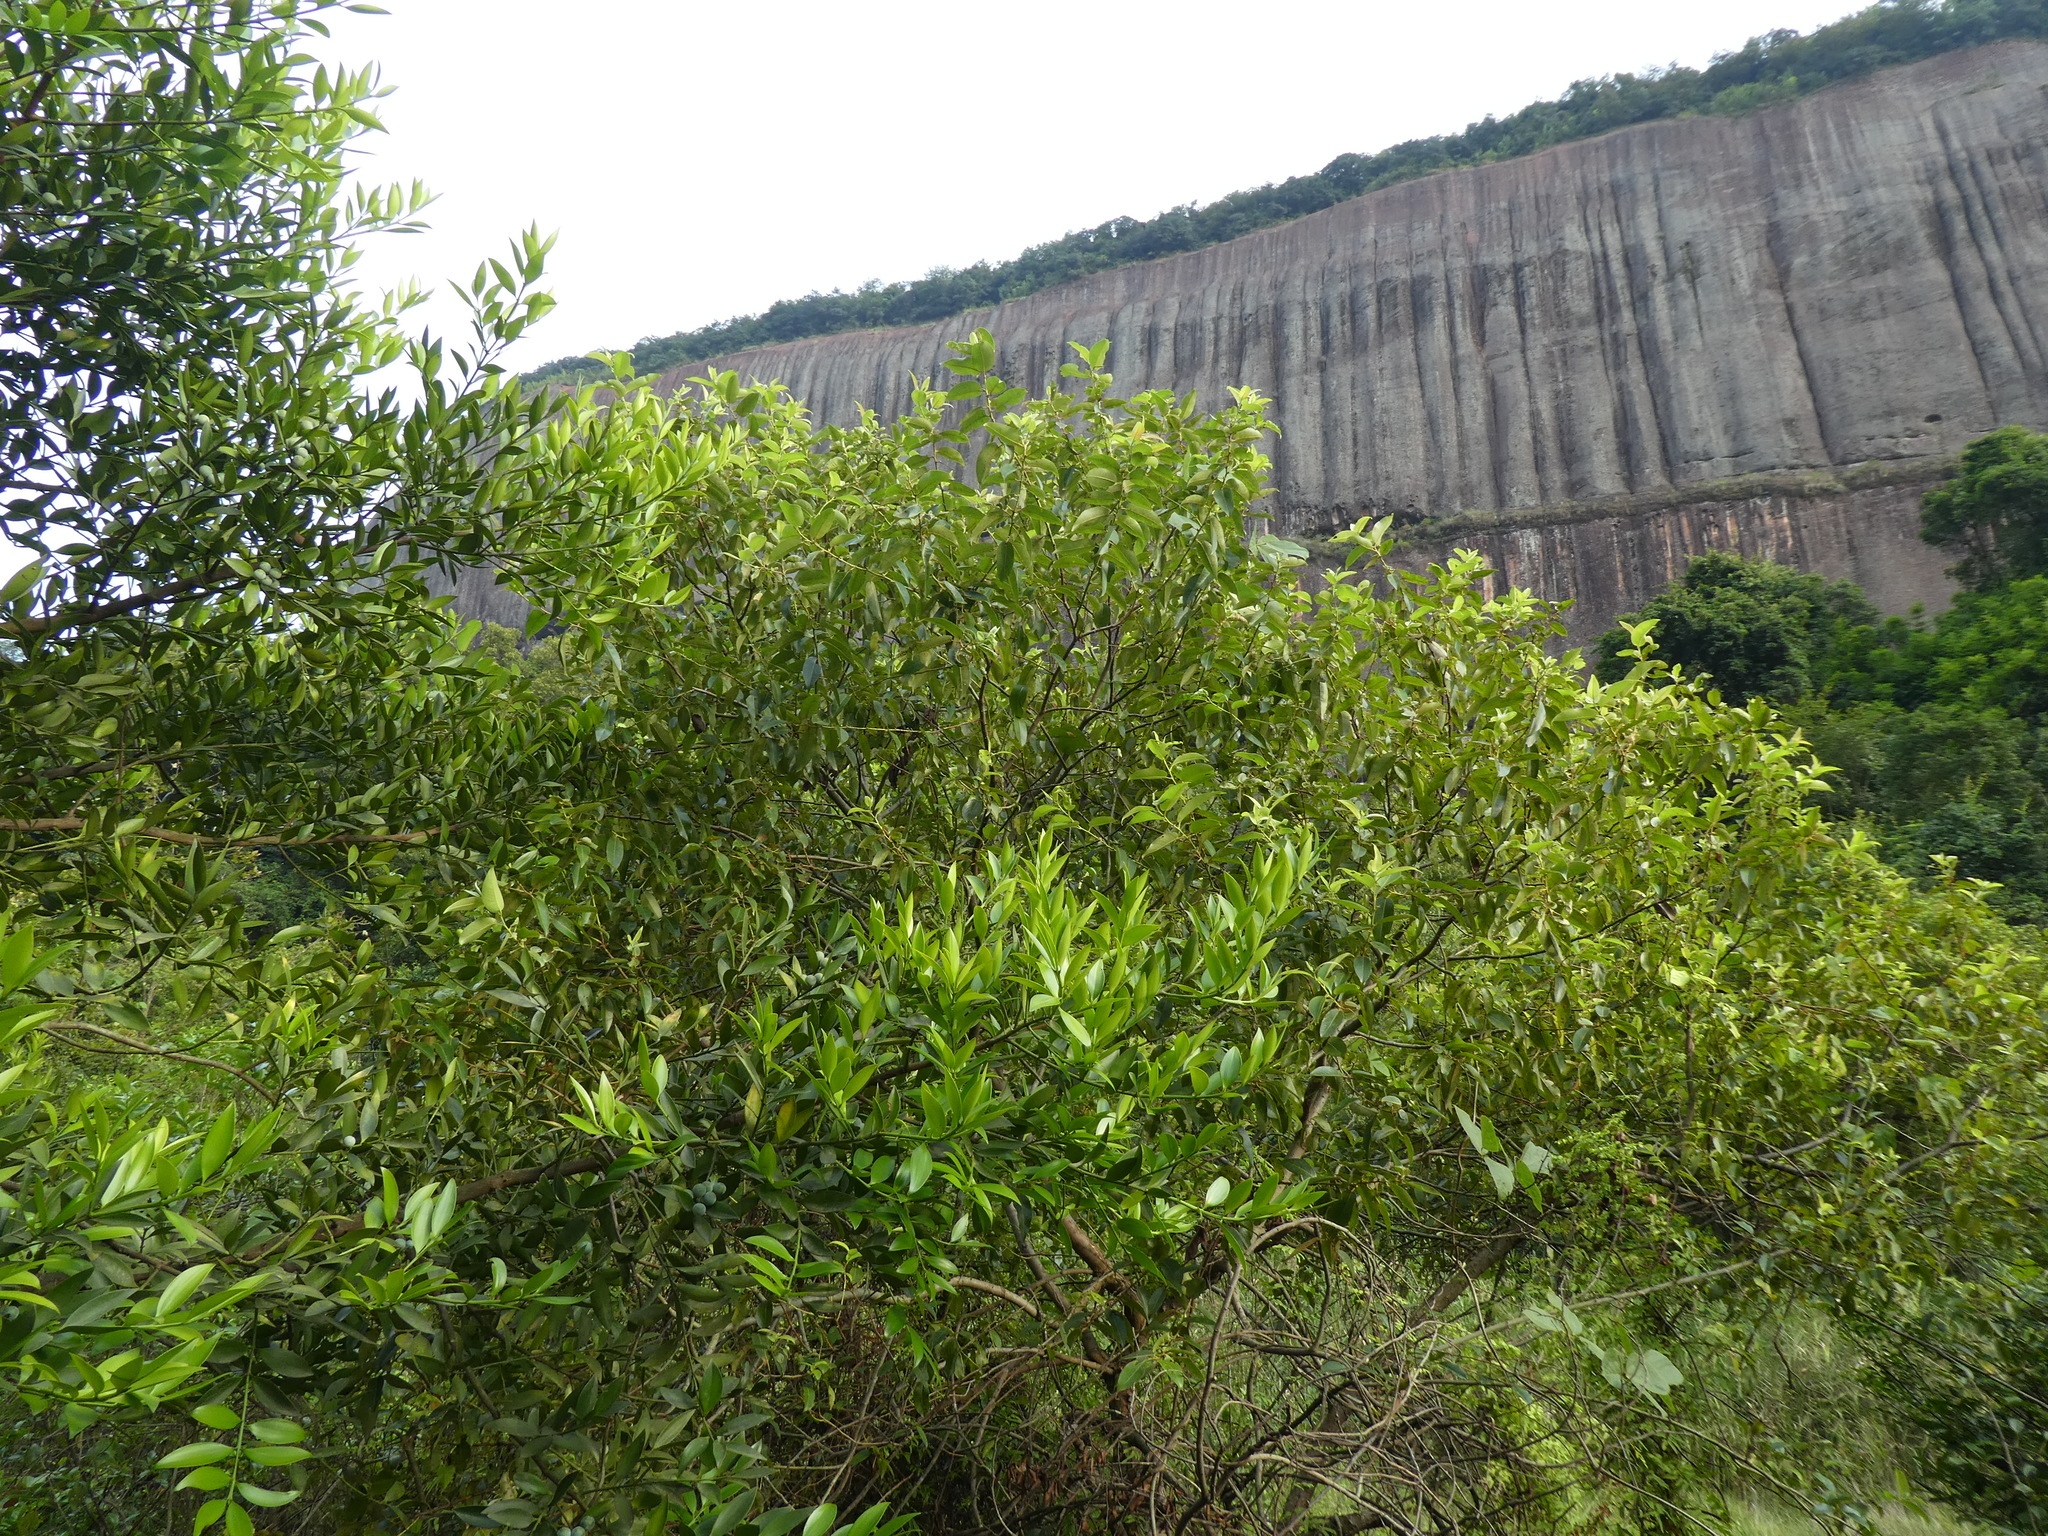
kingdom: Plantae
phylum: Tracheophyta
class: Magnoliopsida
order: Malpighiales
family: Salicaceae
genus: Salix
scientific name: Salix mesnyi
